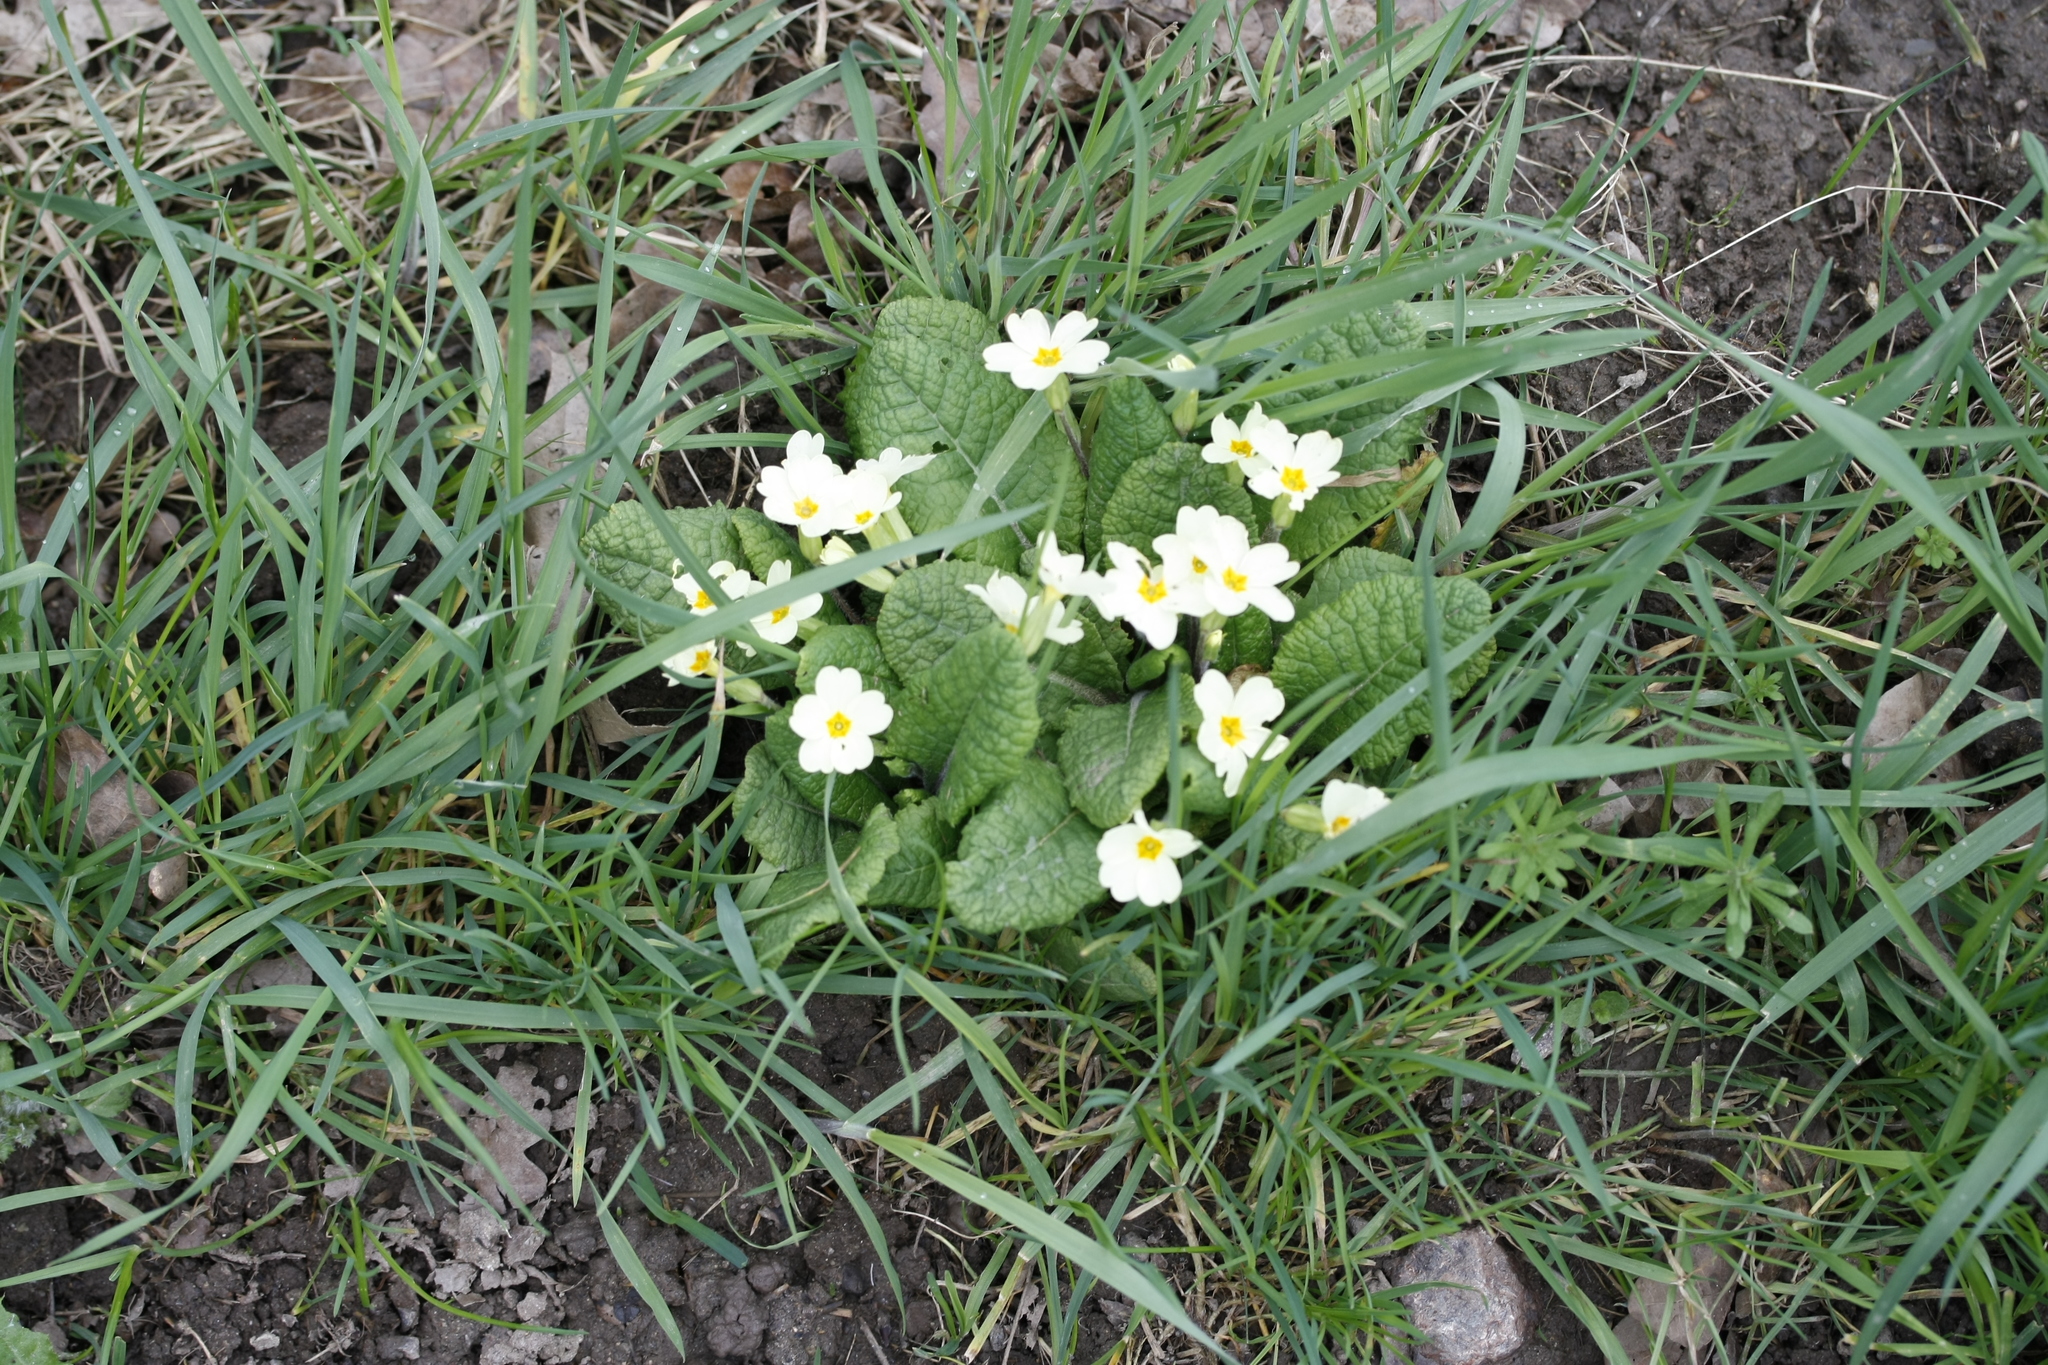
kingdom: Plantae
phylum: Tracheophyta
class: Magnoliopsida
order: Ericales
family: Primulaceae
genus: Primula
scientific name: Primula vulgaris
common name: Primrose
